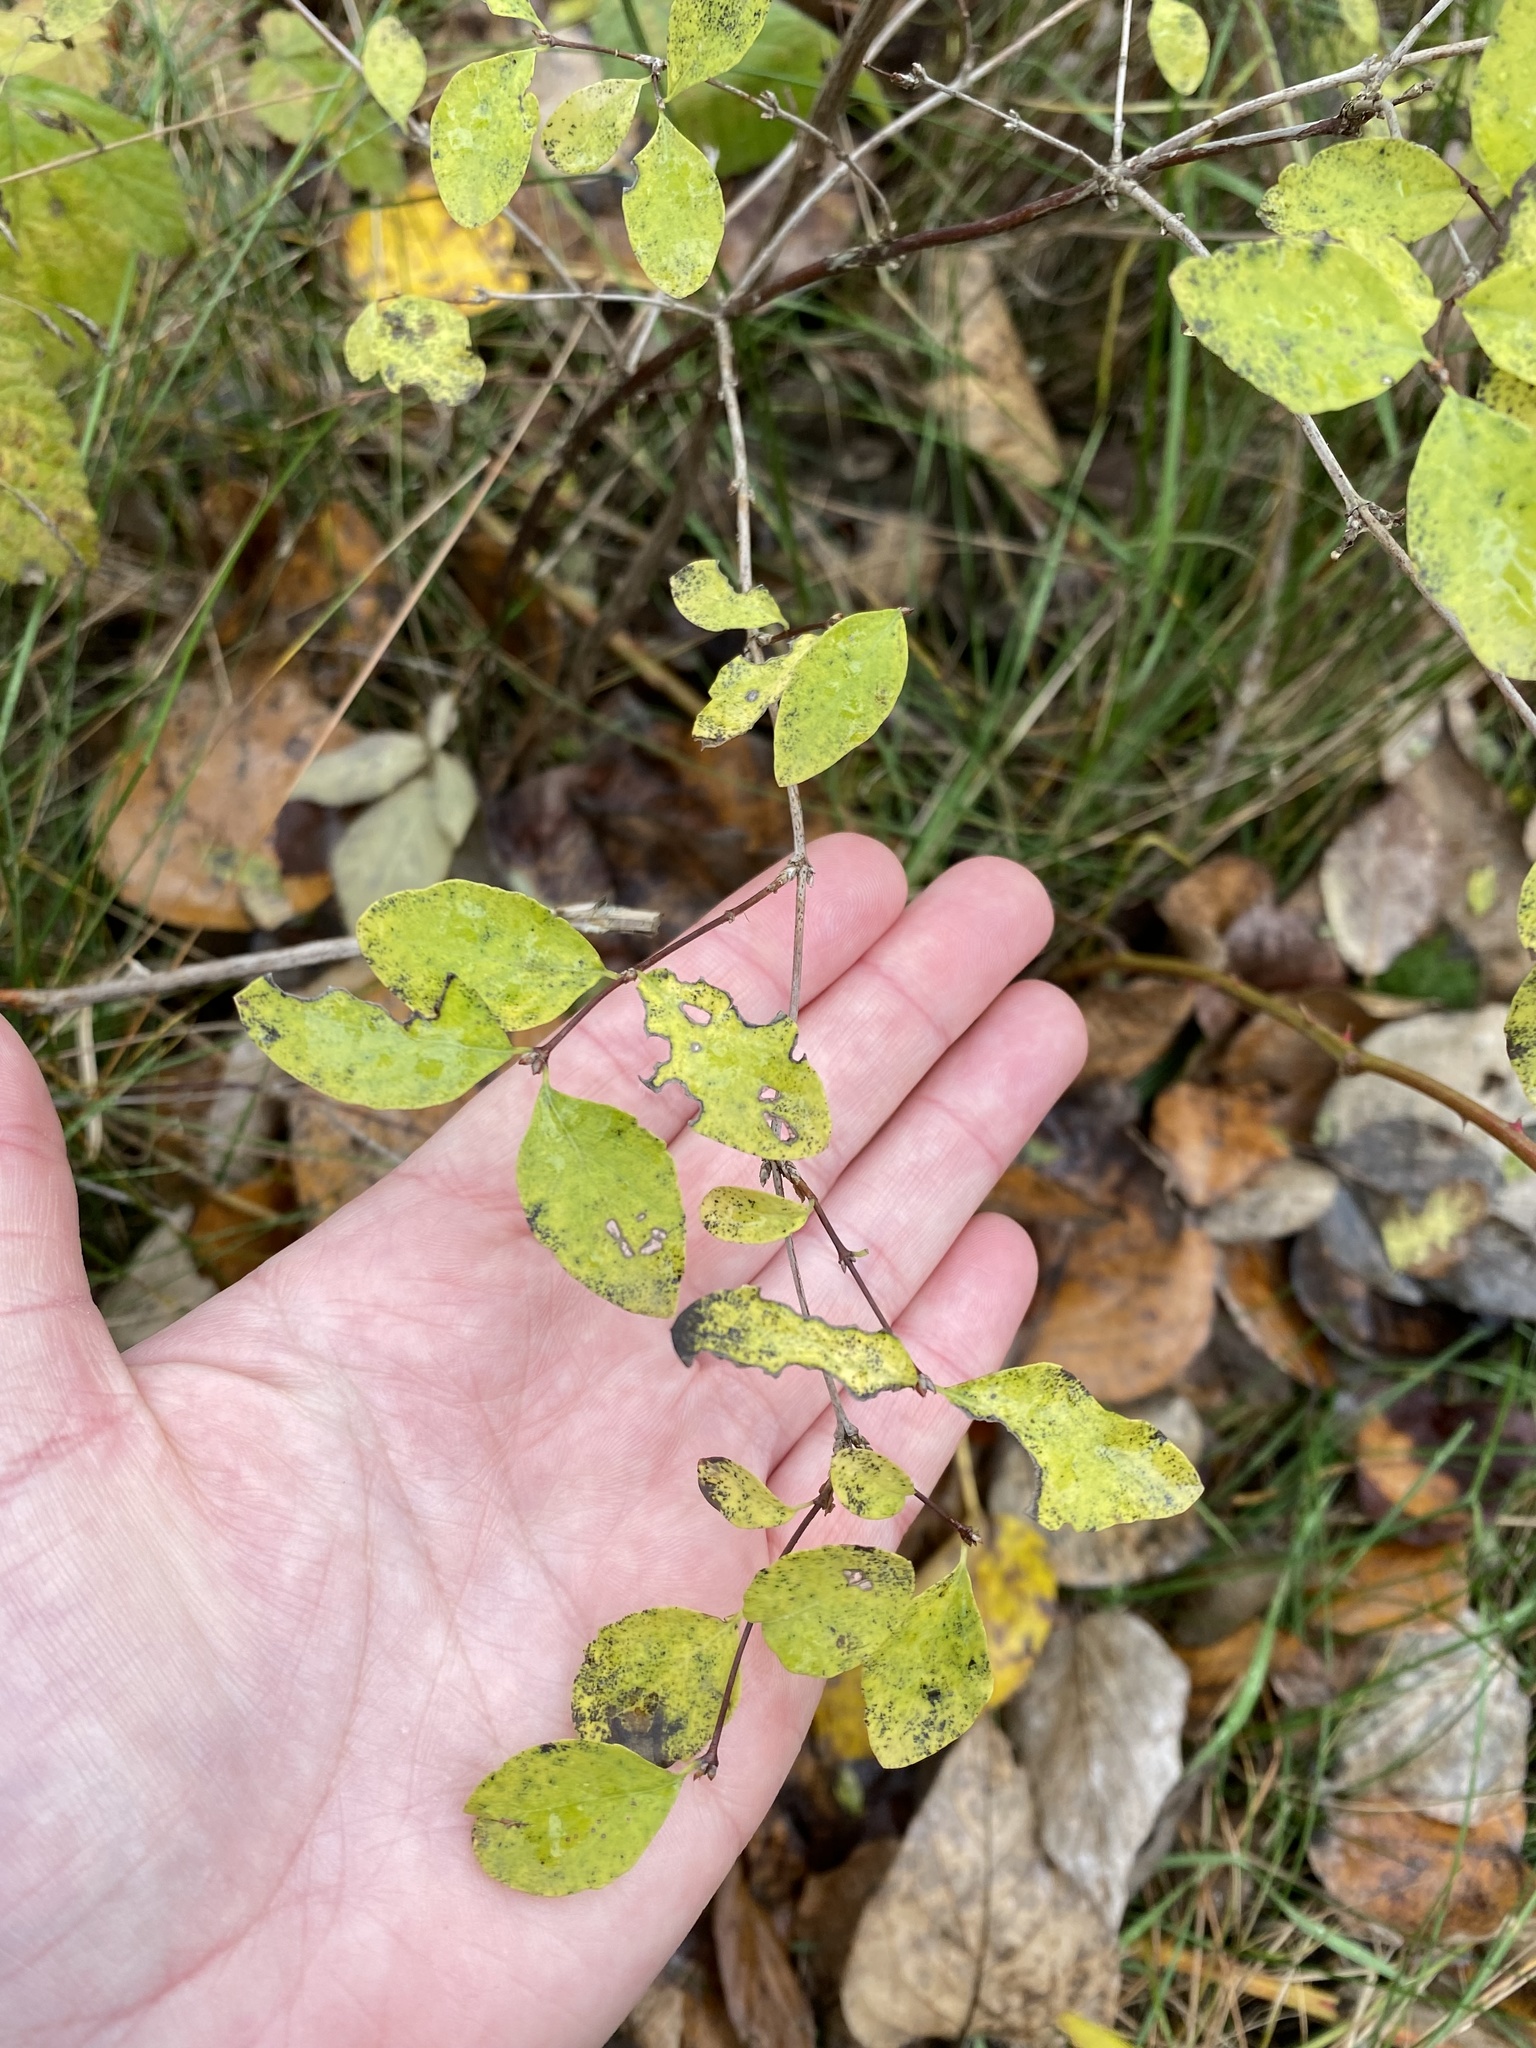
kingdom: Plantae
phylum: Tracheophyta
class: Magnoliopsida
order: Dipsacales
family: Caprifoliaceae
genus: Symphoricarpos
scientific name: Symphoricarpos albus
